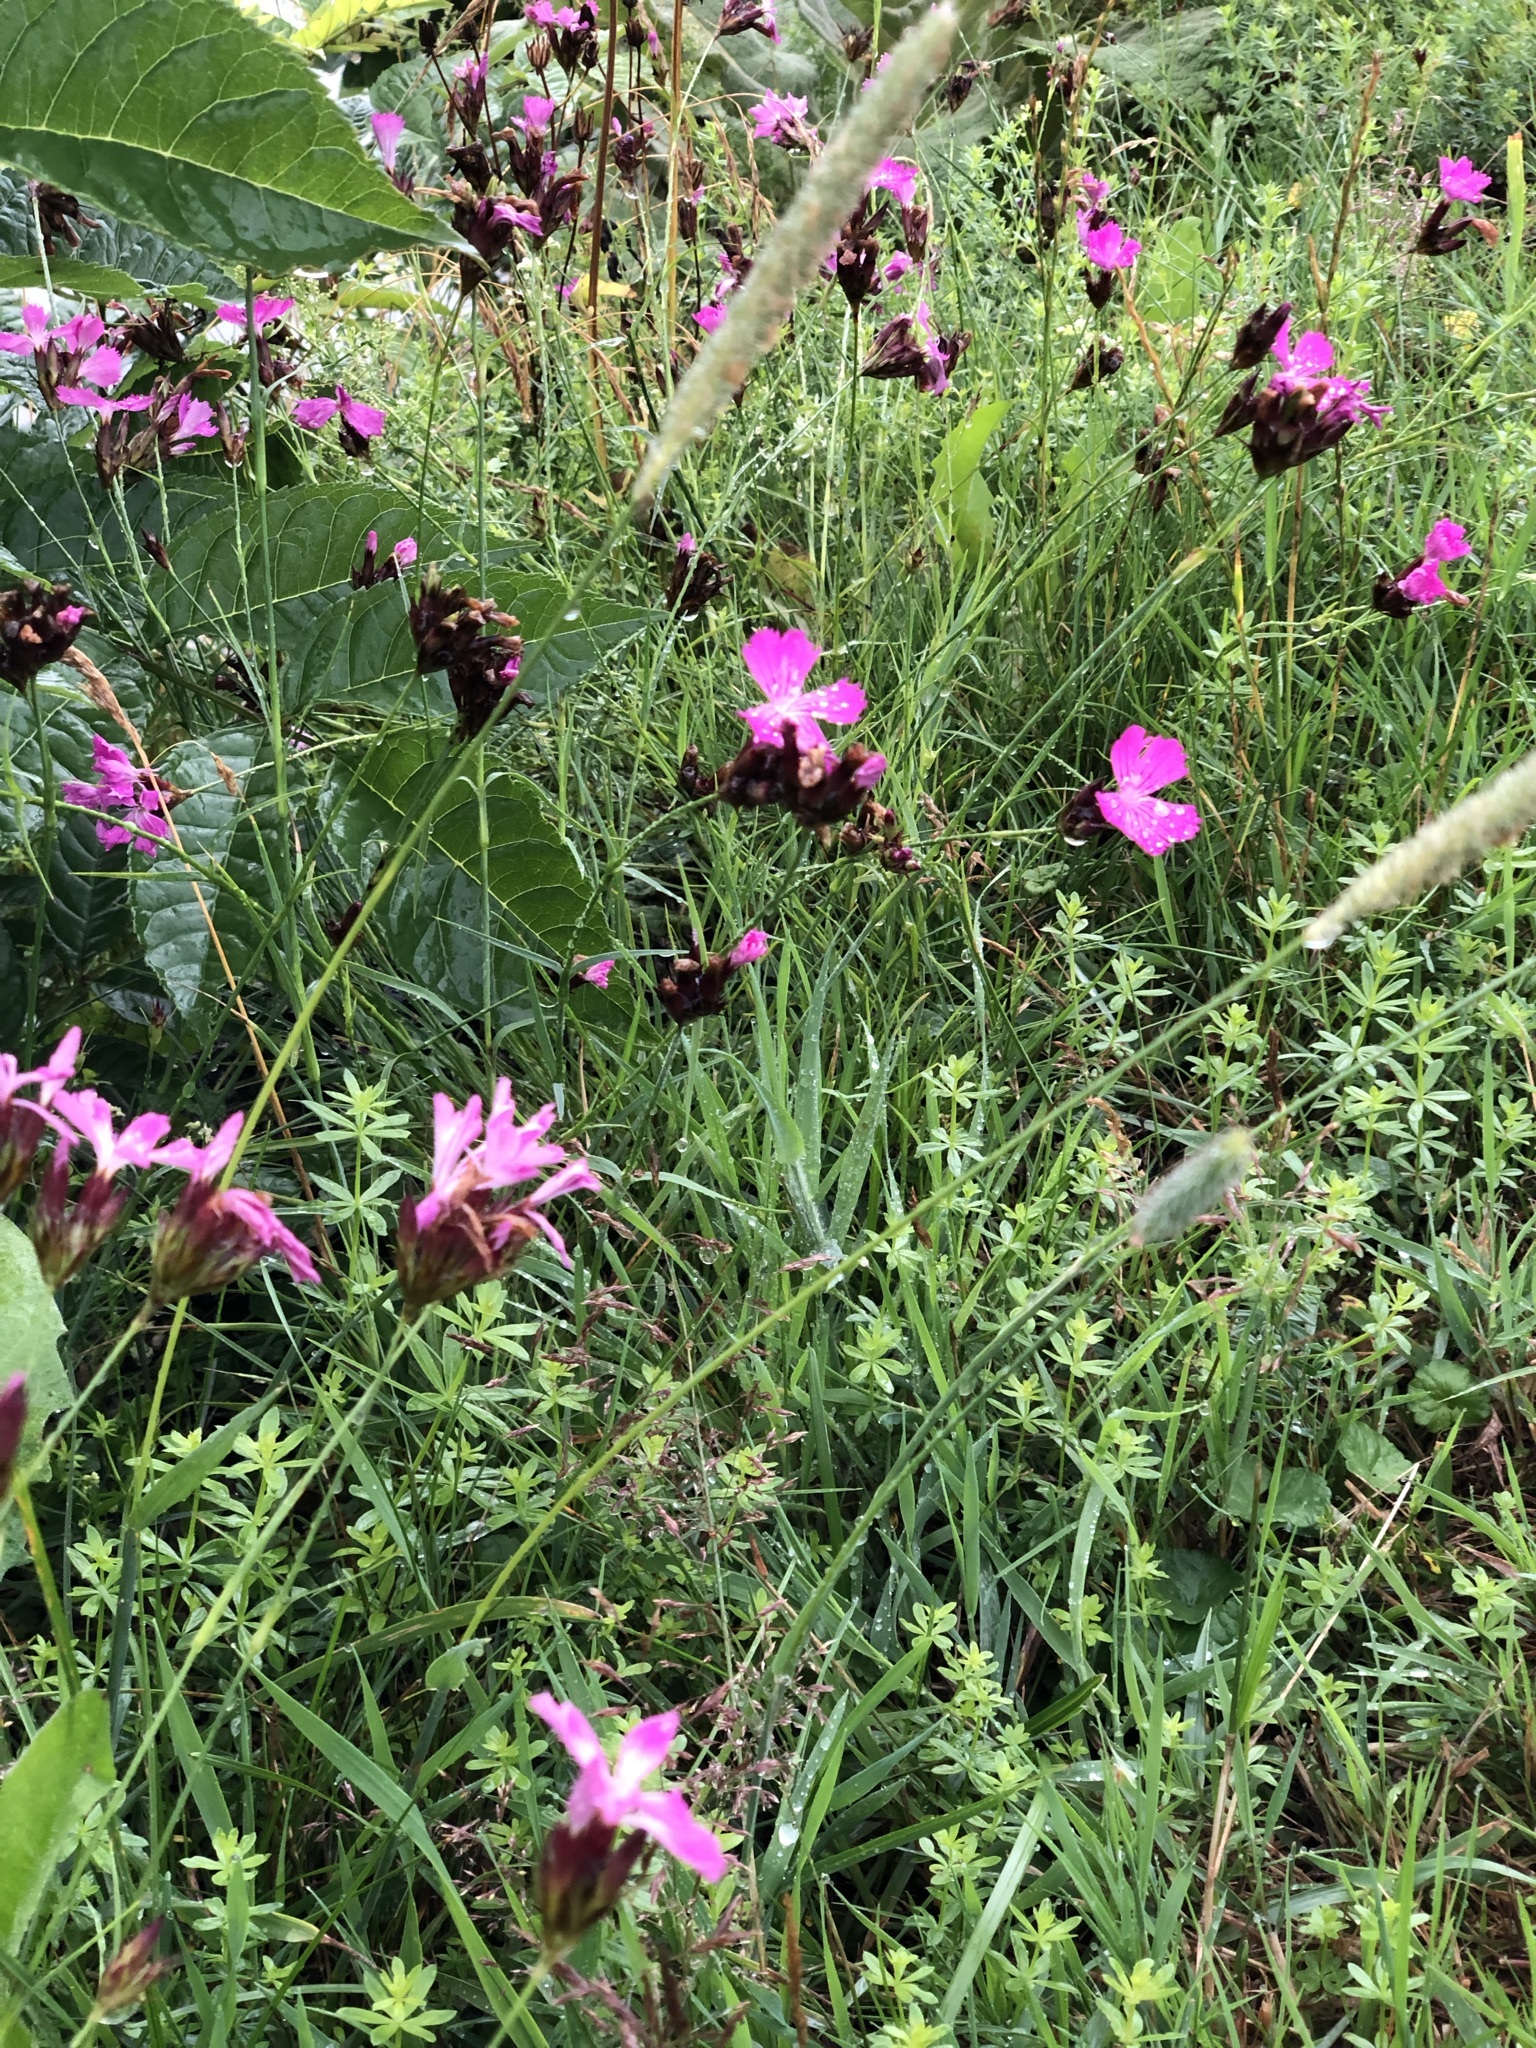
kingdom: Plantae
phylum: Tracheophyta
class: Magnoliopsida
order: Caryophyllales
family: Caryophyllaceae
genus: Dianthus
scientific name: Dianthus giganteus
